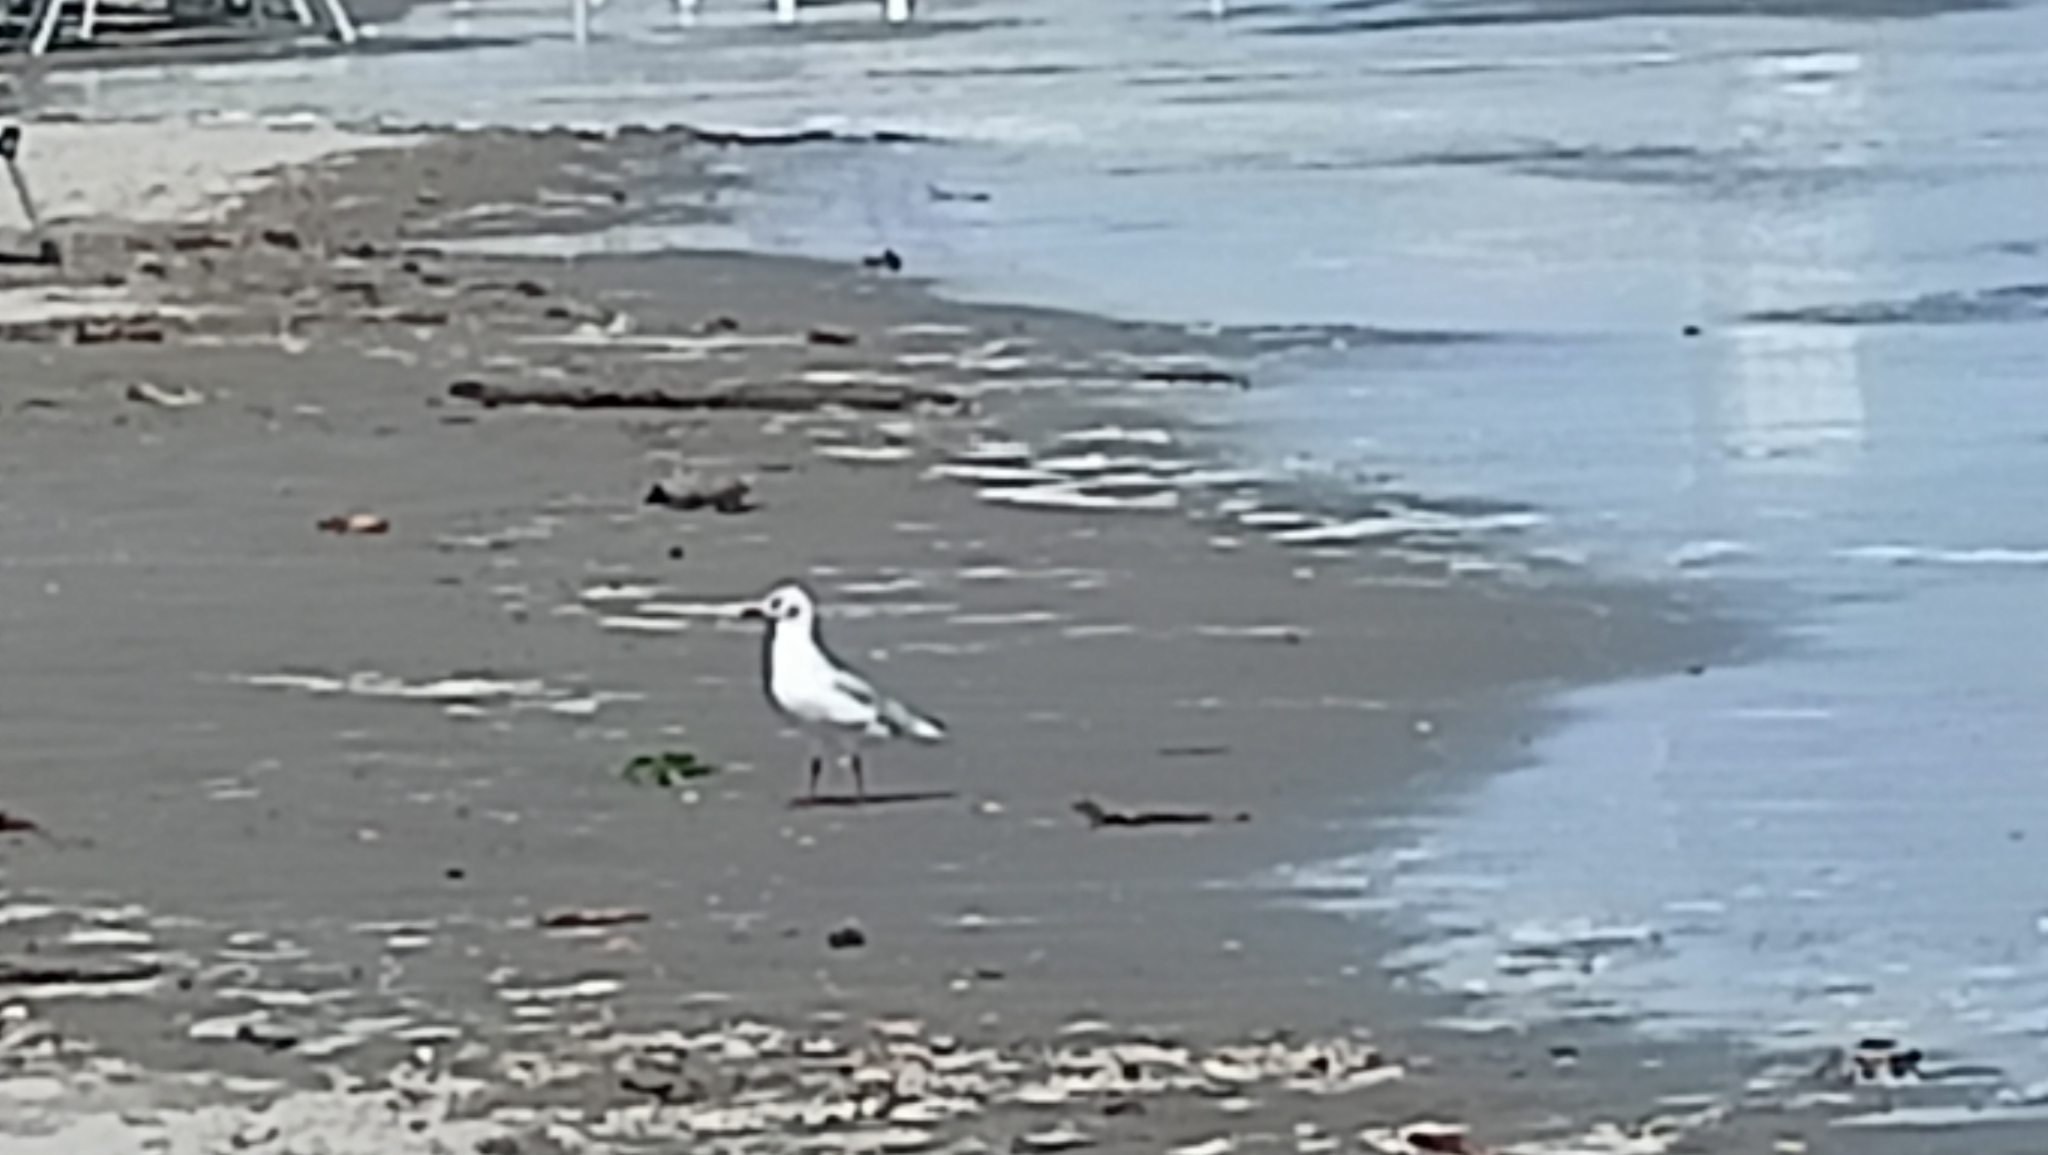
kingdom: Animalia
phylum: Chordata
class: Aves
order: Charadriiformes
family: Laridae
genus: Chroicocephalus
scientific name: Chroicocephalus ridibundus
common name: Black-headed gull
